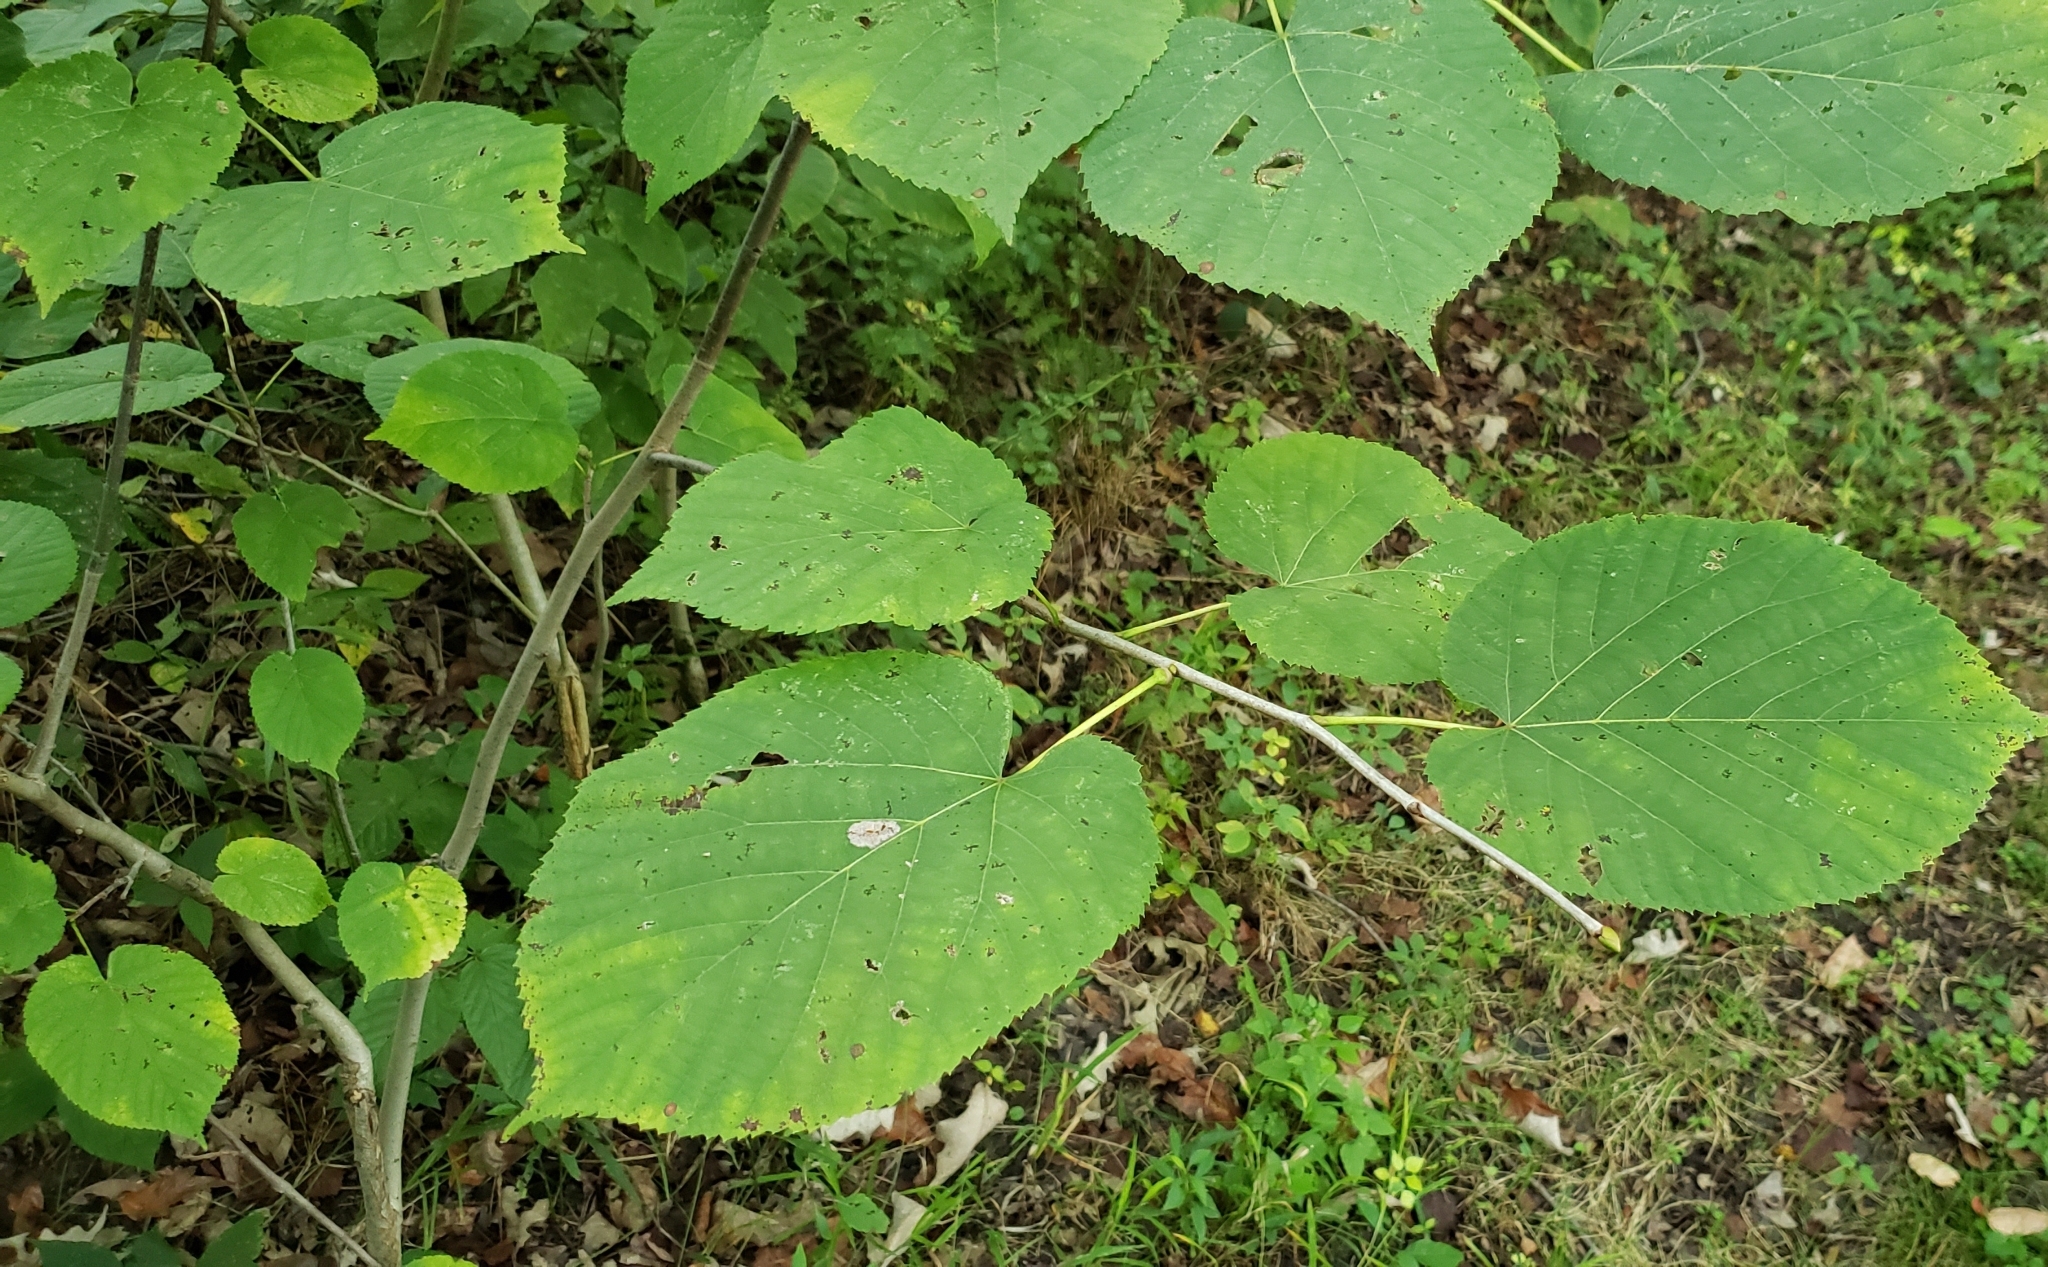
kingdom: Plantae
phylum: Tracheophyta
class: Magnoliopsida
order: Malvales
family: Malvaceae
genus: Tilia
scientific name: Tilia americana
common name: Basswood
